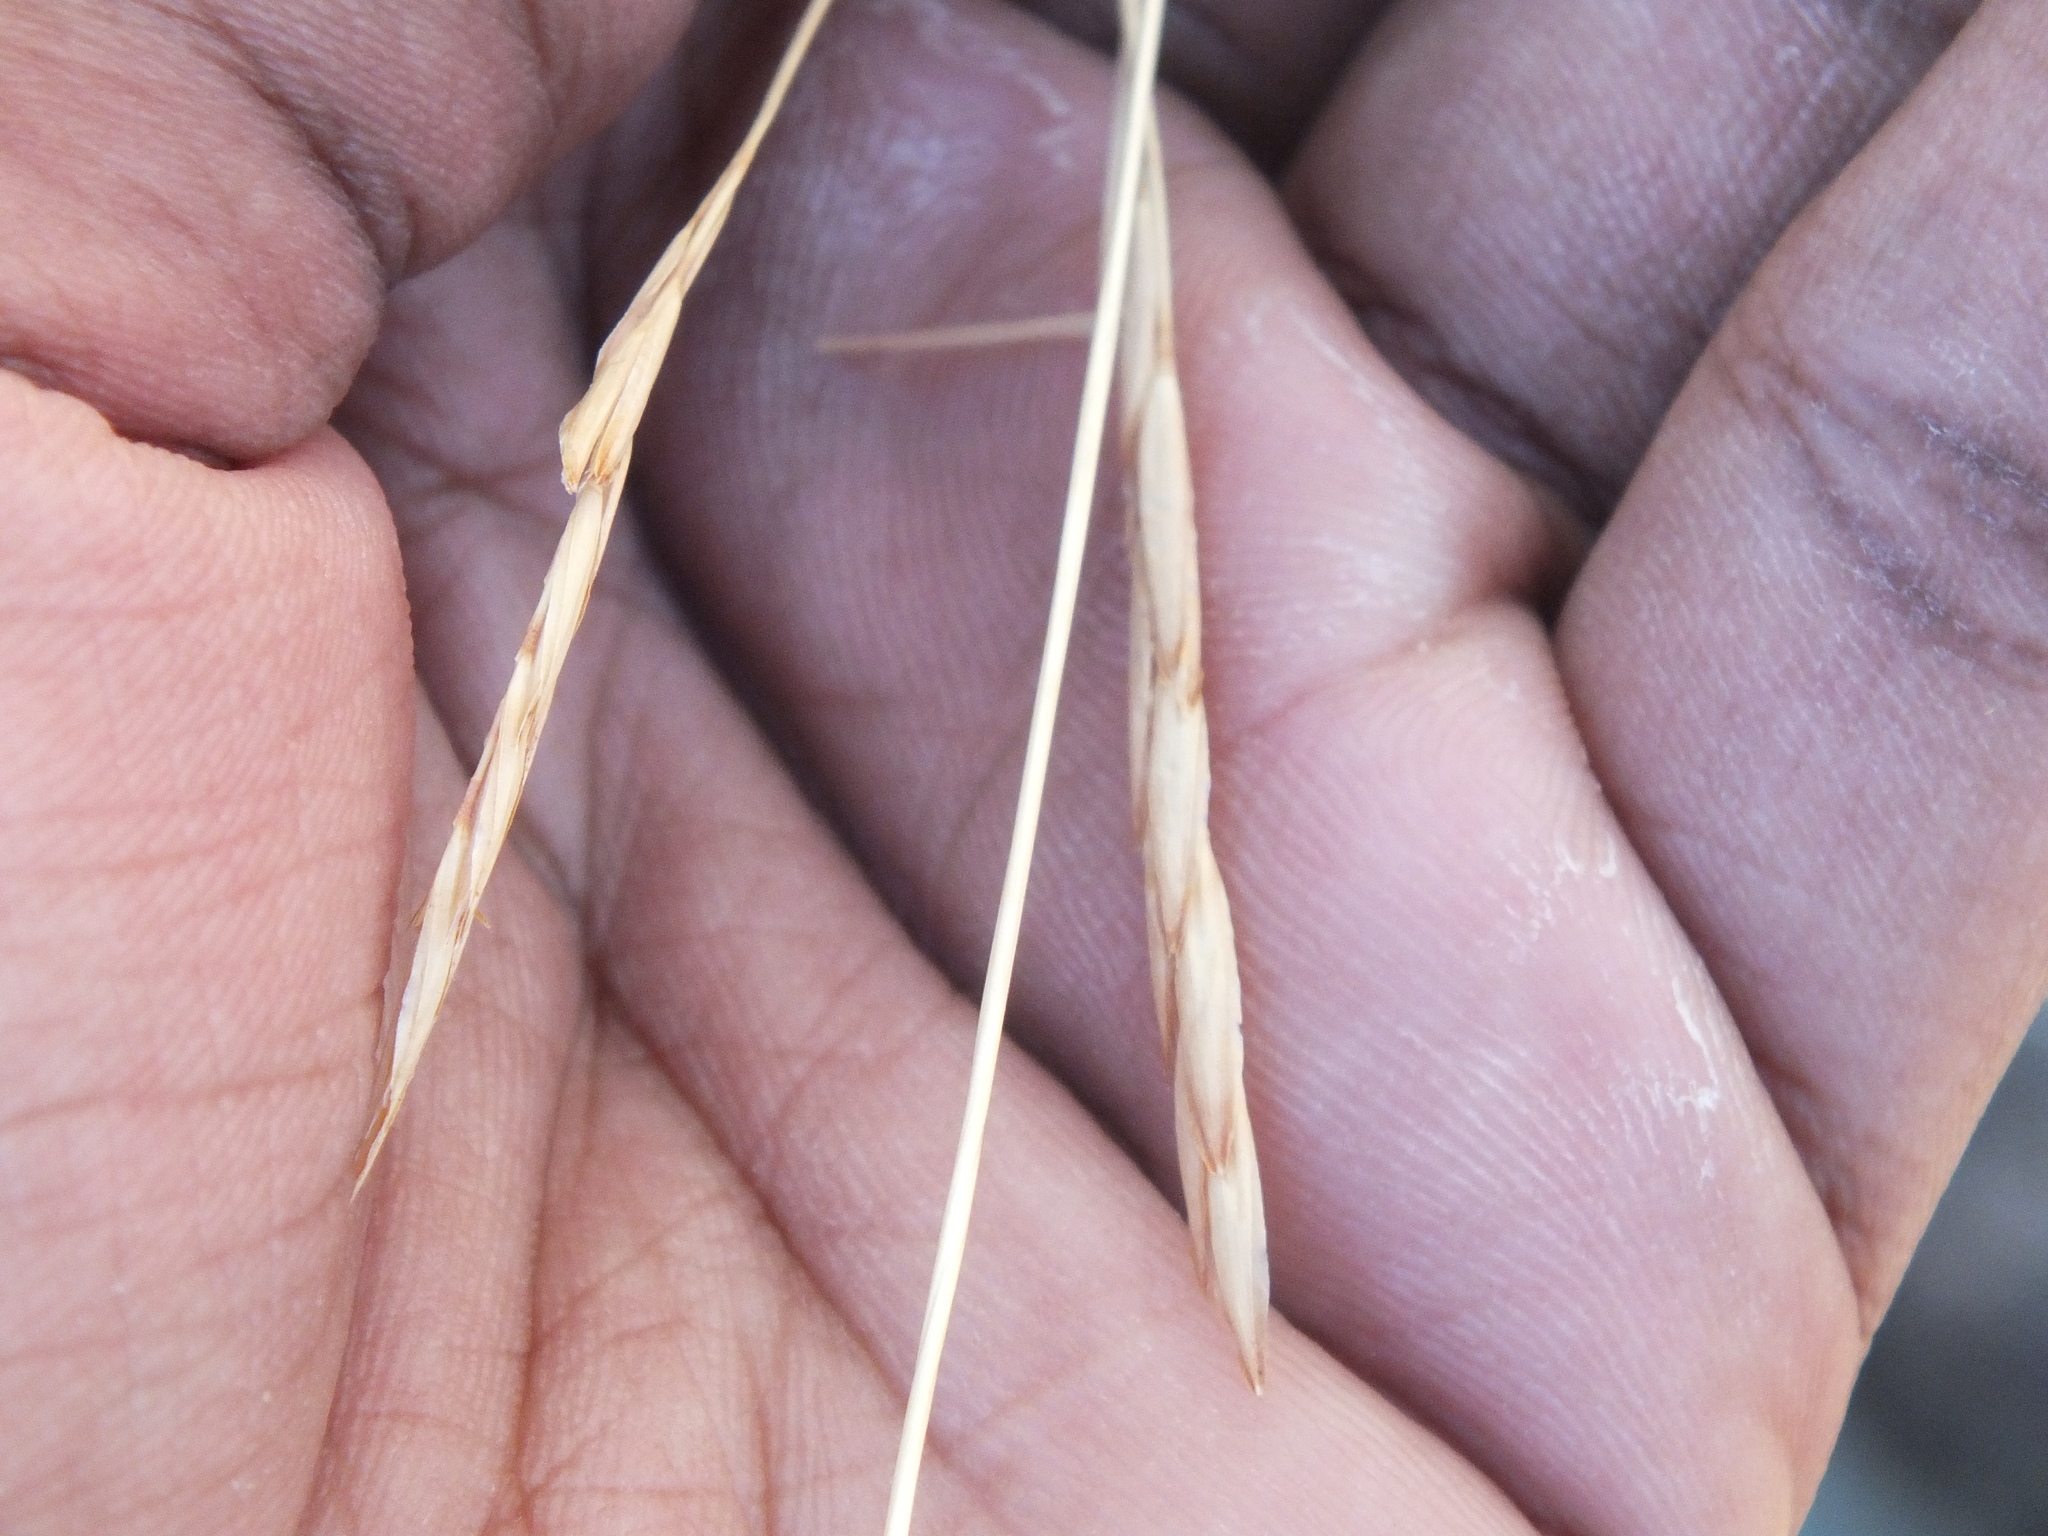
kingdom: Plantae
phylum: Tracheophyta
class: Liliopsida
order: Poales
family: Poaceae
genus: Heteropogon
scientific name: Heteropogon contortus
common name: Tanglehead
